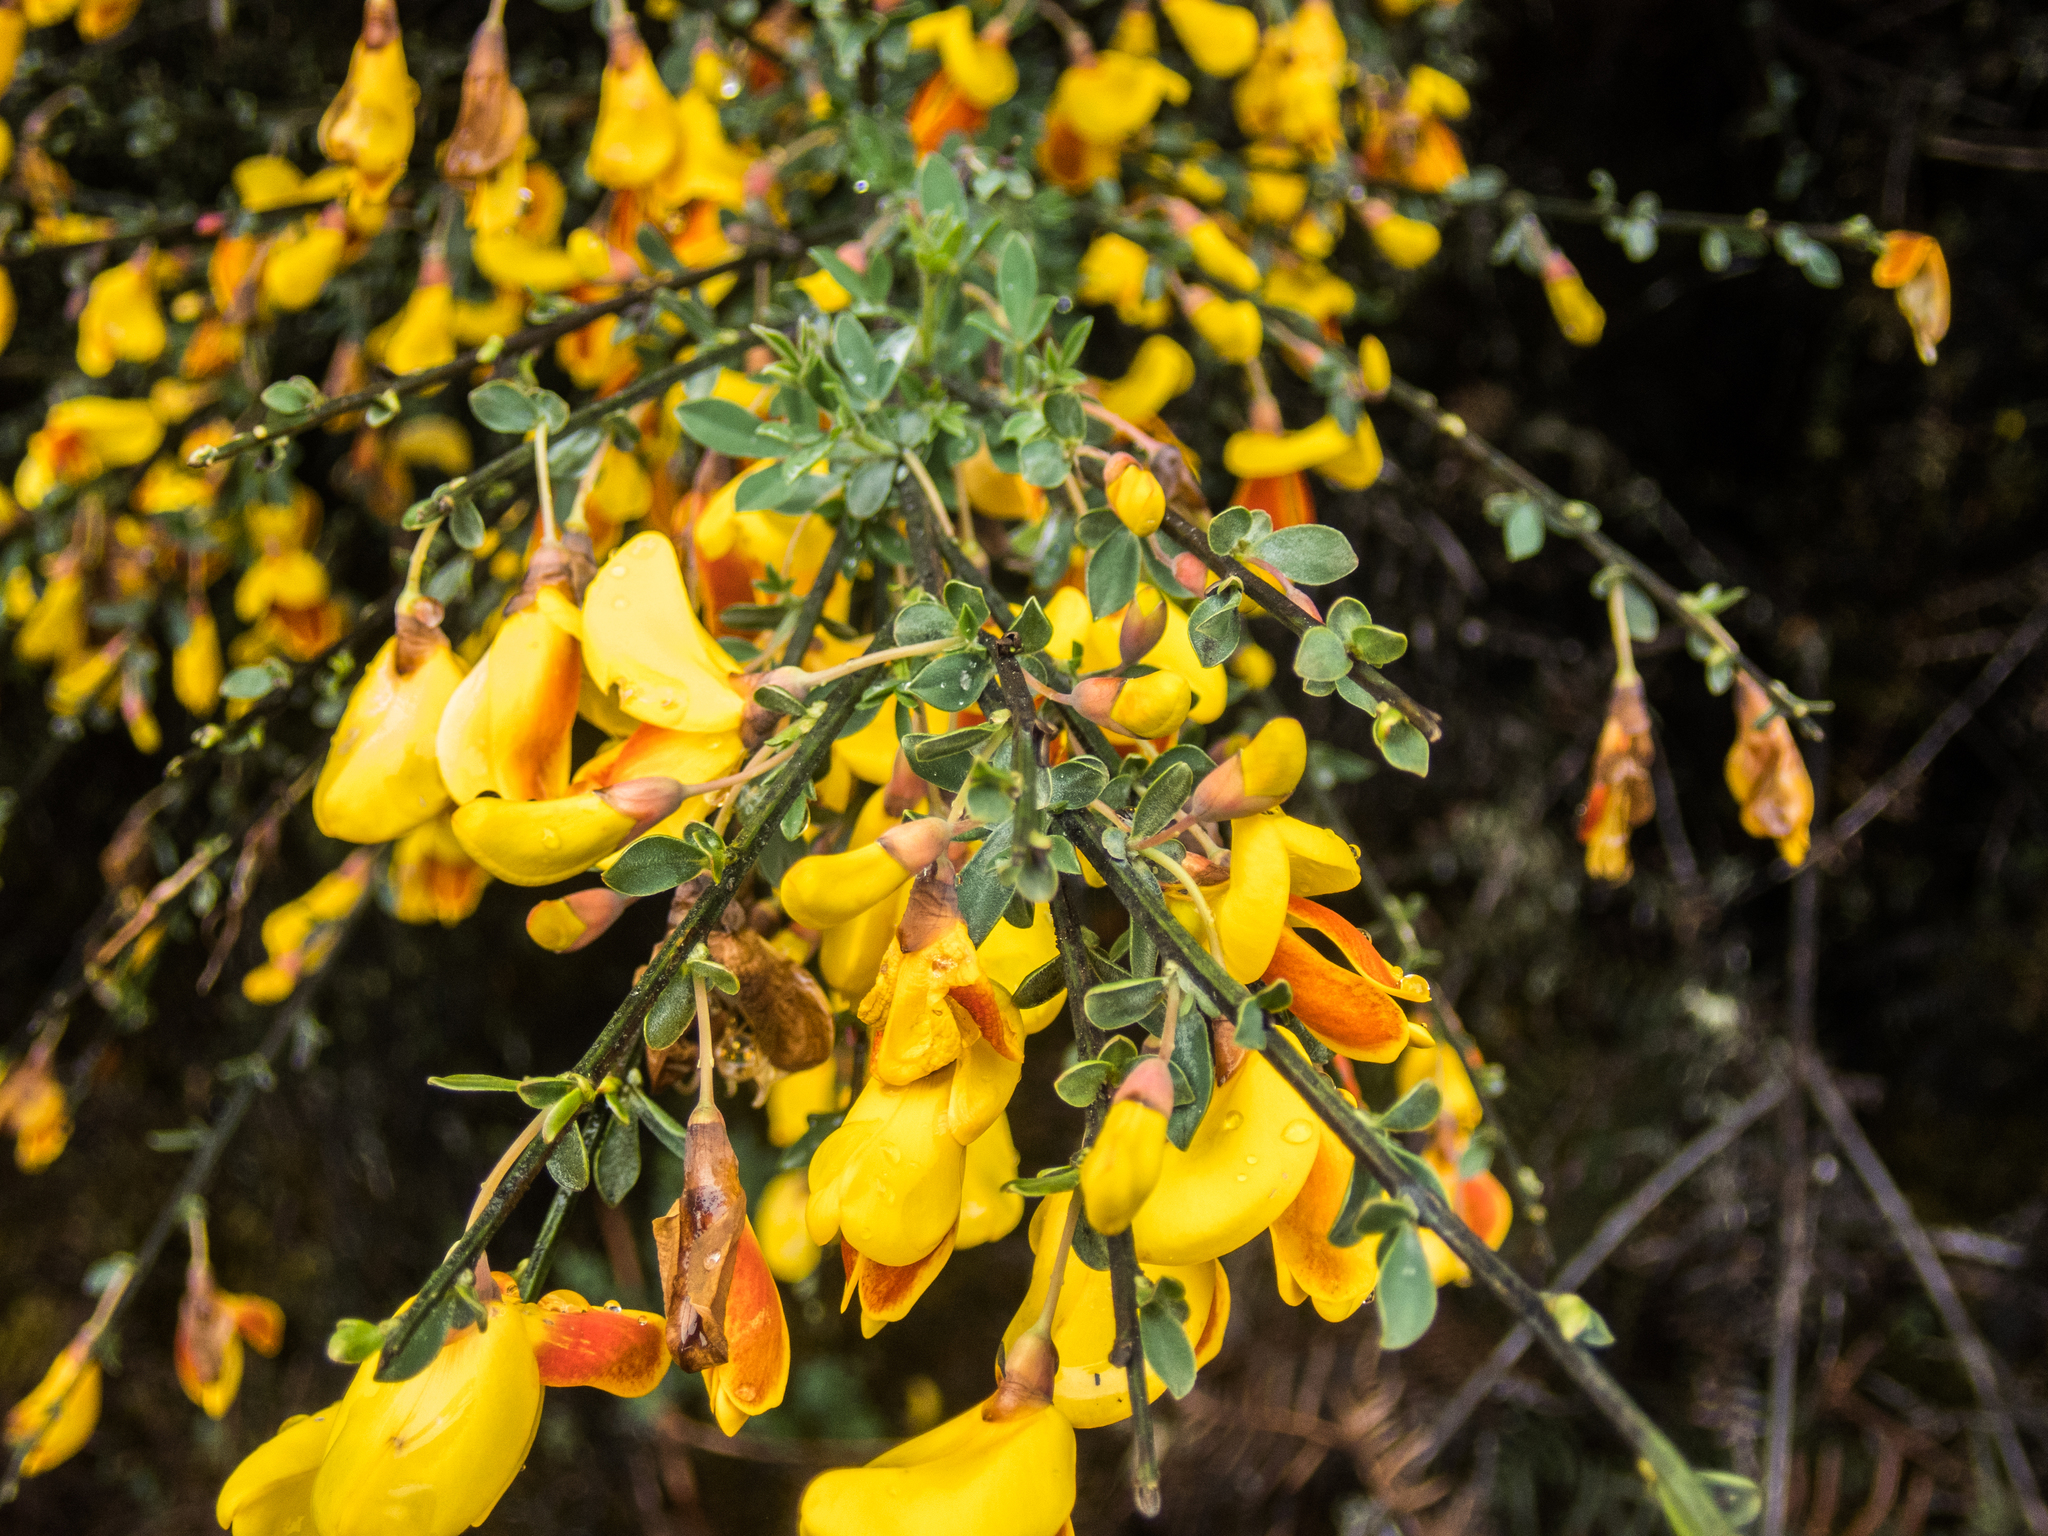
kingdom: Plantae
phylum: Tracheophyta
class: Magnoliopsida
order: Fabales
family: Fabaceae
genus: Cytisus
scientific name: Cytisus scoparius
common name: Scotch broom
